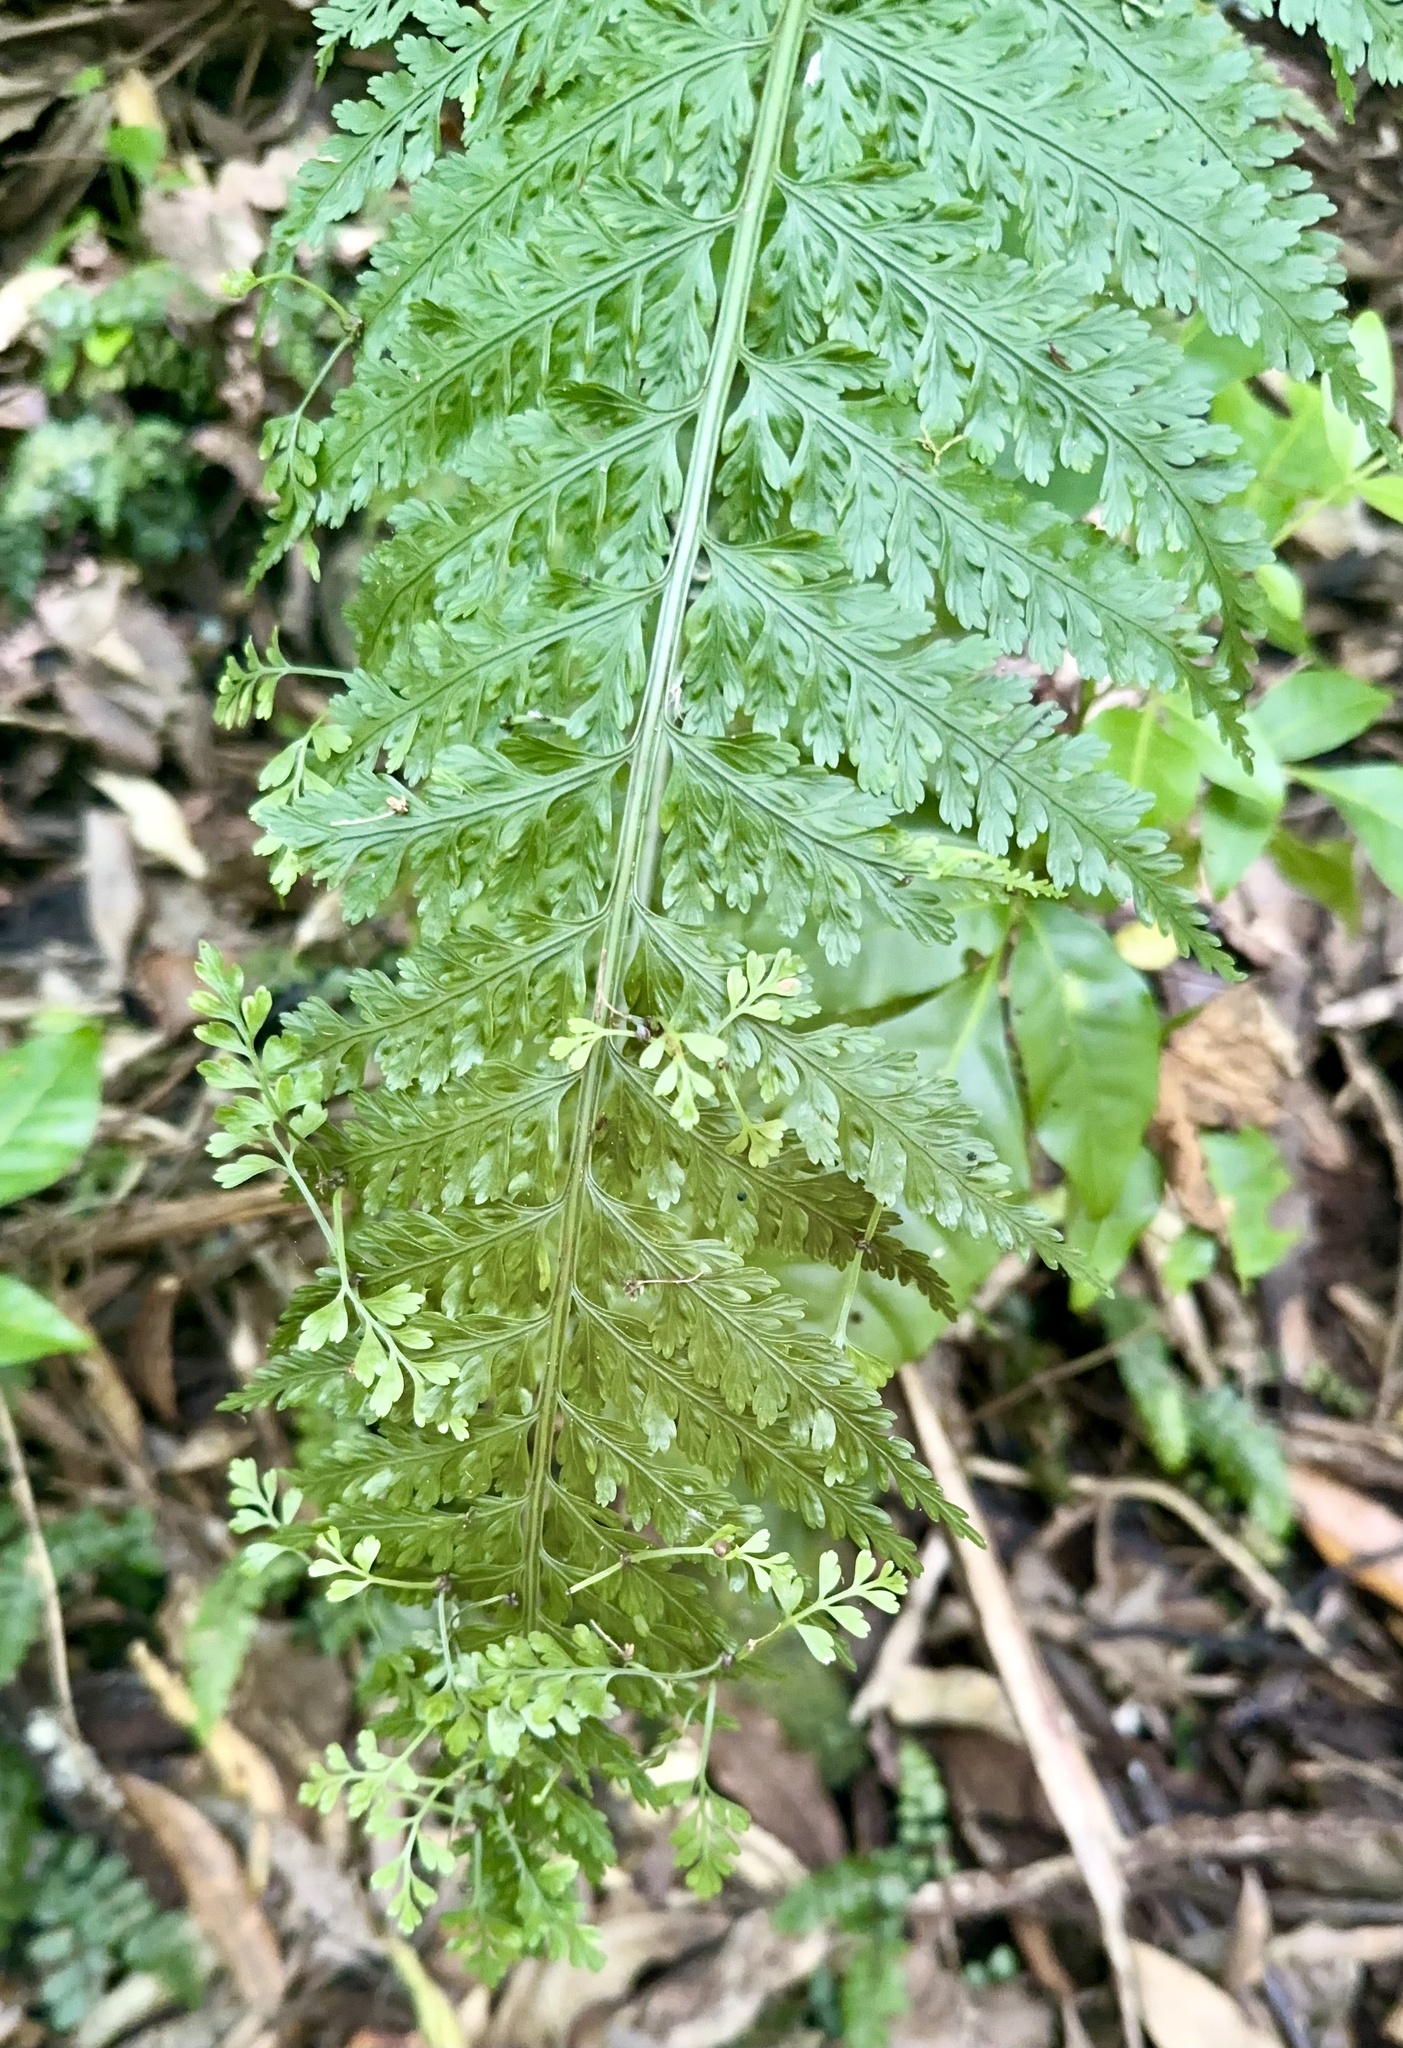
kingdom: Plantae
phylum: Tracheophyta
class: Polypodiopsida
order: Polypodiales
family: Aspleniaceae
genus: Asplenium
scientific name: Asplenium bulbiferum
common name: Mother fern
